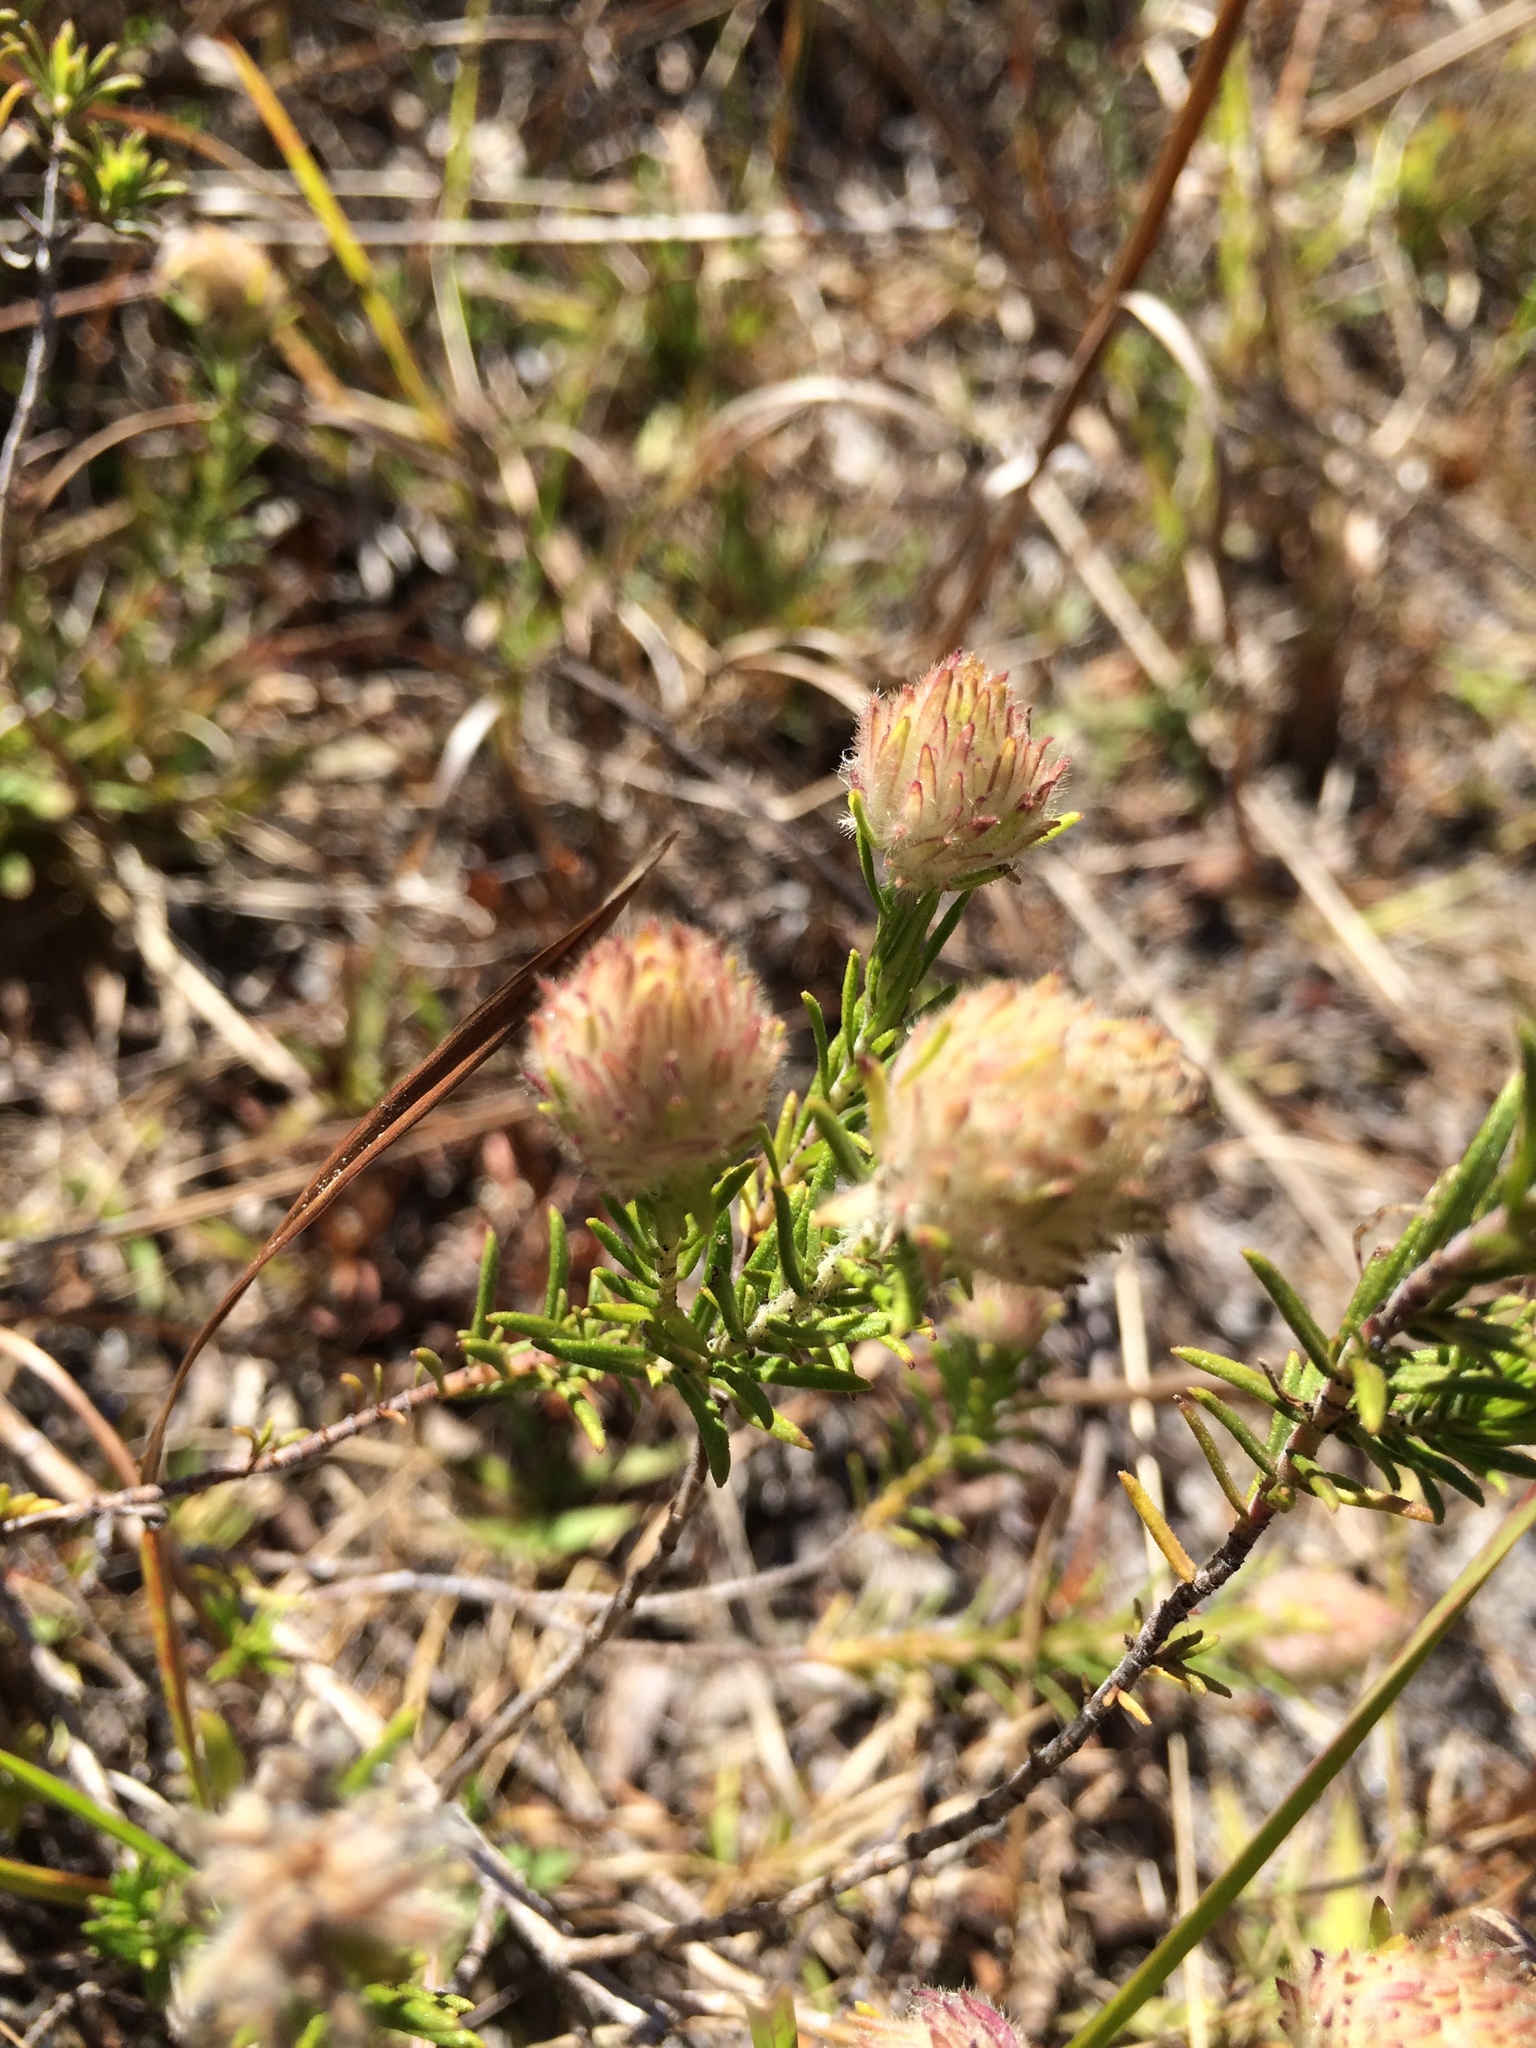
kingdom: Plantae
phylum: Tracheophyta
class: Magnoliopsida
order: Lamiales
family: Lamiaceae
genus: Piloblephis
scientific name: Piloblephis rigida
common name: Wild pennyroyal
